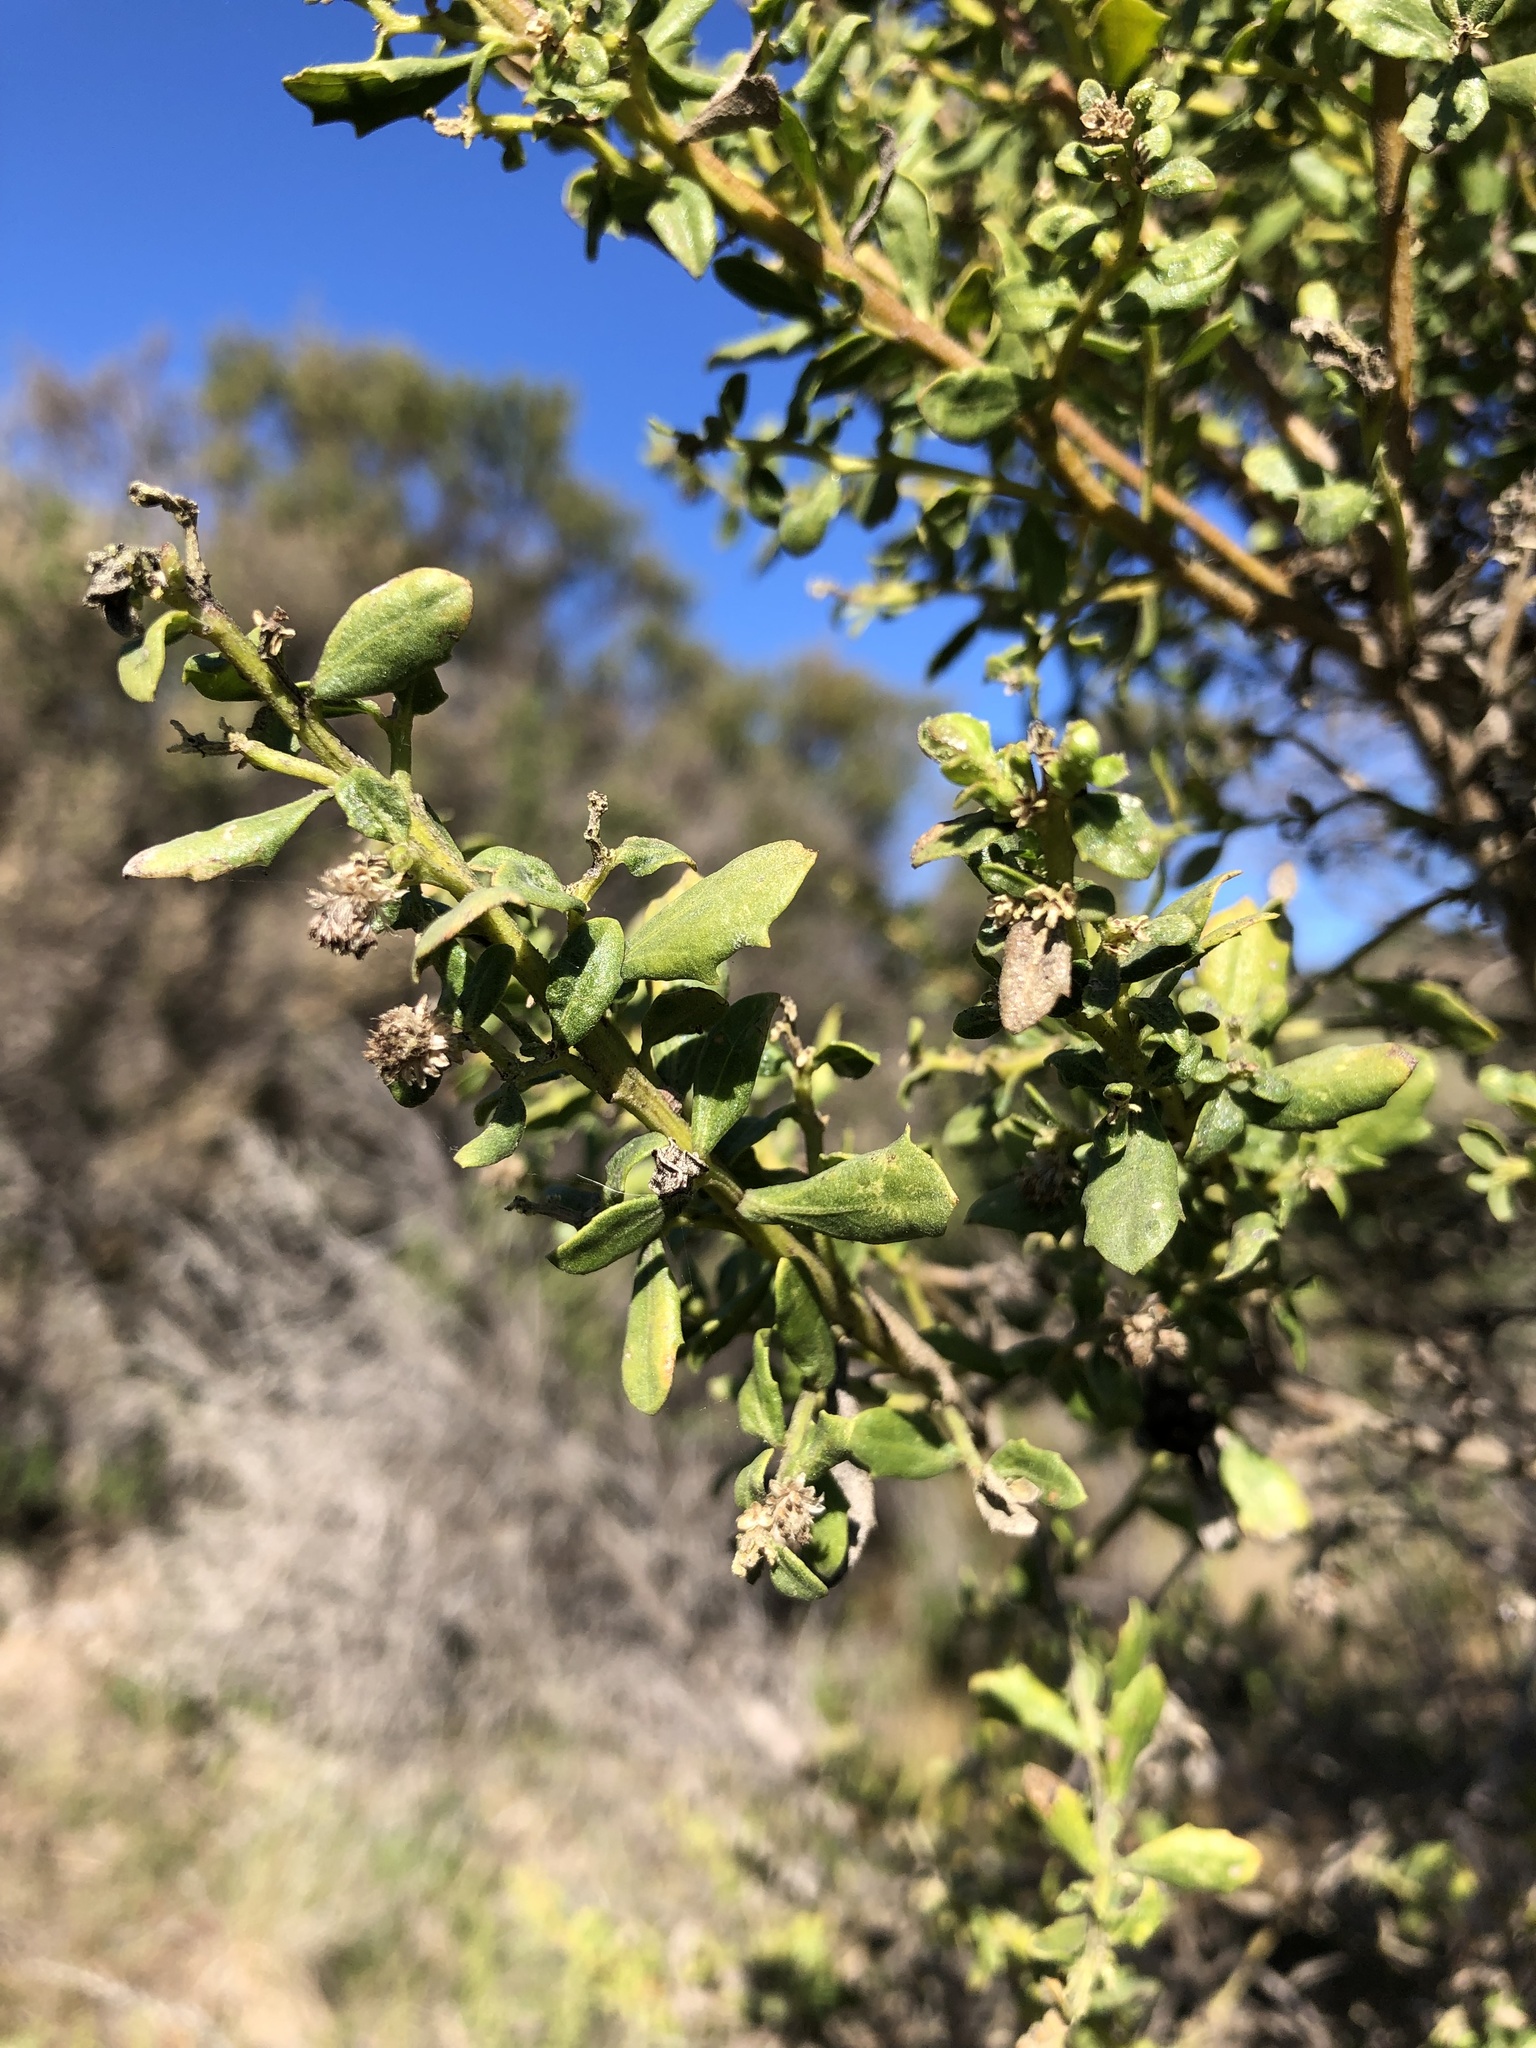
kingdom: Plantae
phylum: Tracheophyta
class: Magnoliopsida
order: Asterales
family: Asteraceae
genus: Baccharis
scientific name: Baccharis pilularis
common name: Coyotebrush
